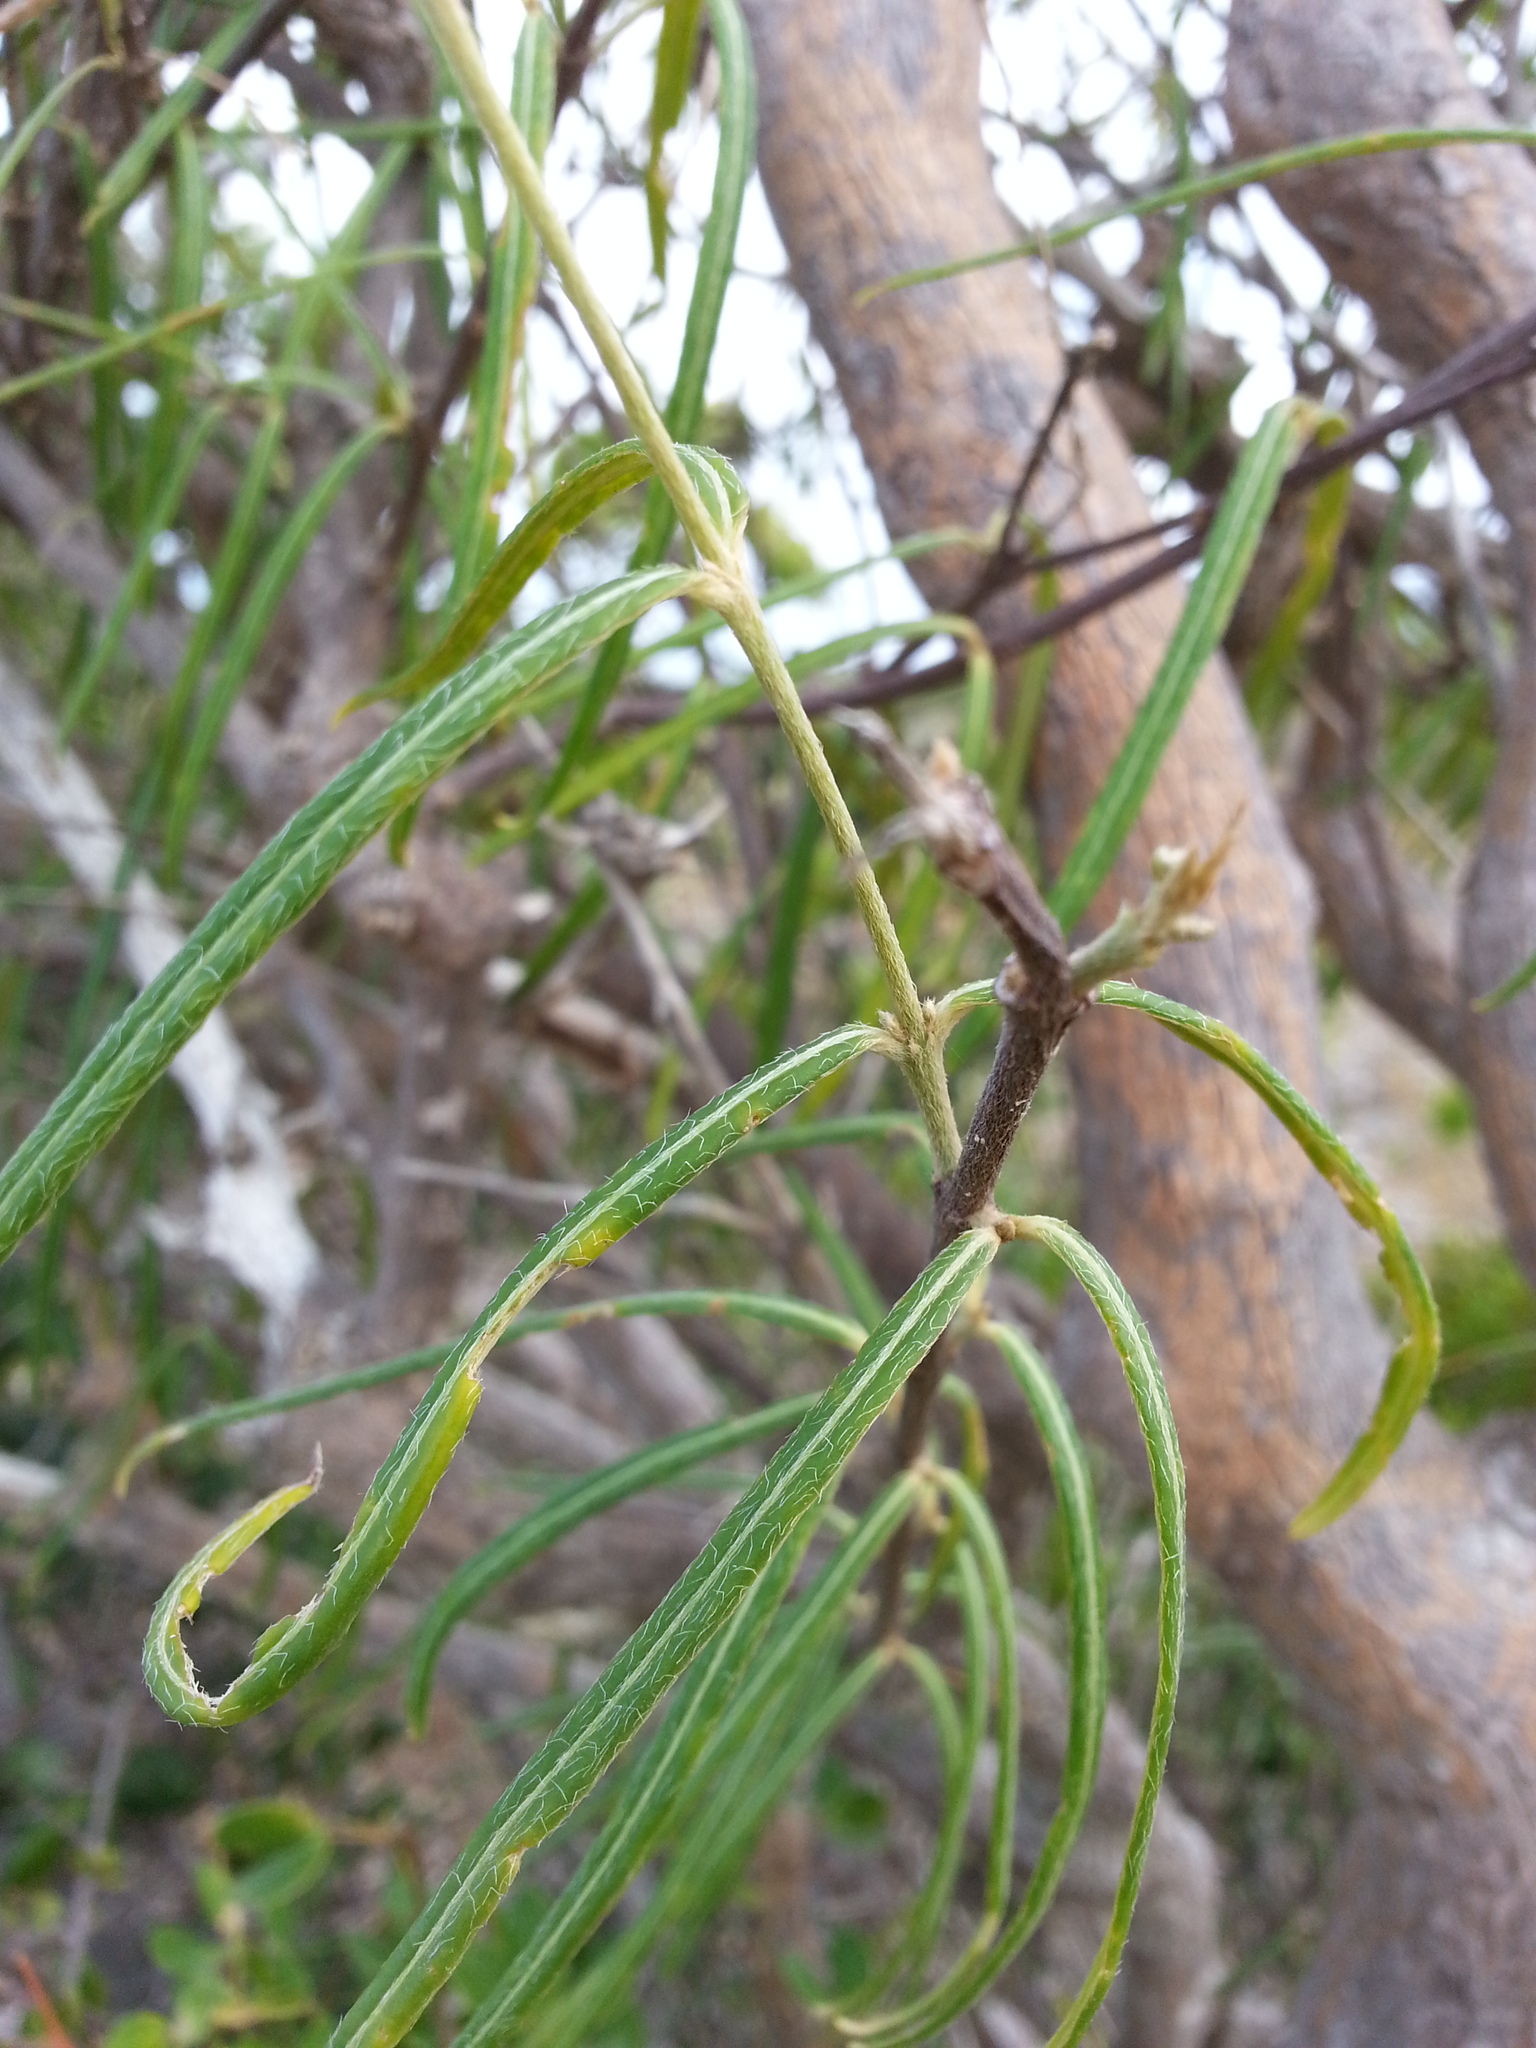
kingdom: Plantae
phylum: Tracheophyta
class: Magnoliopsida
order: Malpighiales
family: Malpighiaceae
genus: Malpighia
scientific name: Malpighia linearis
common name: Bastard cherry
